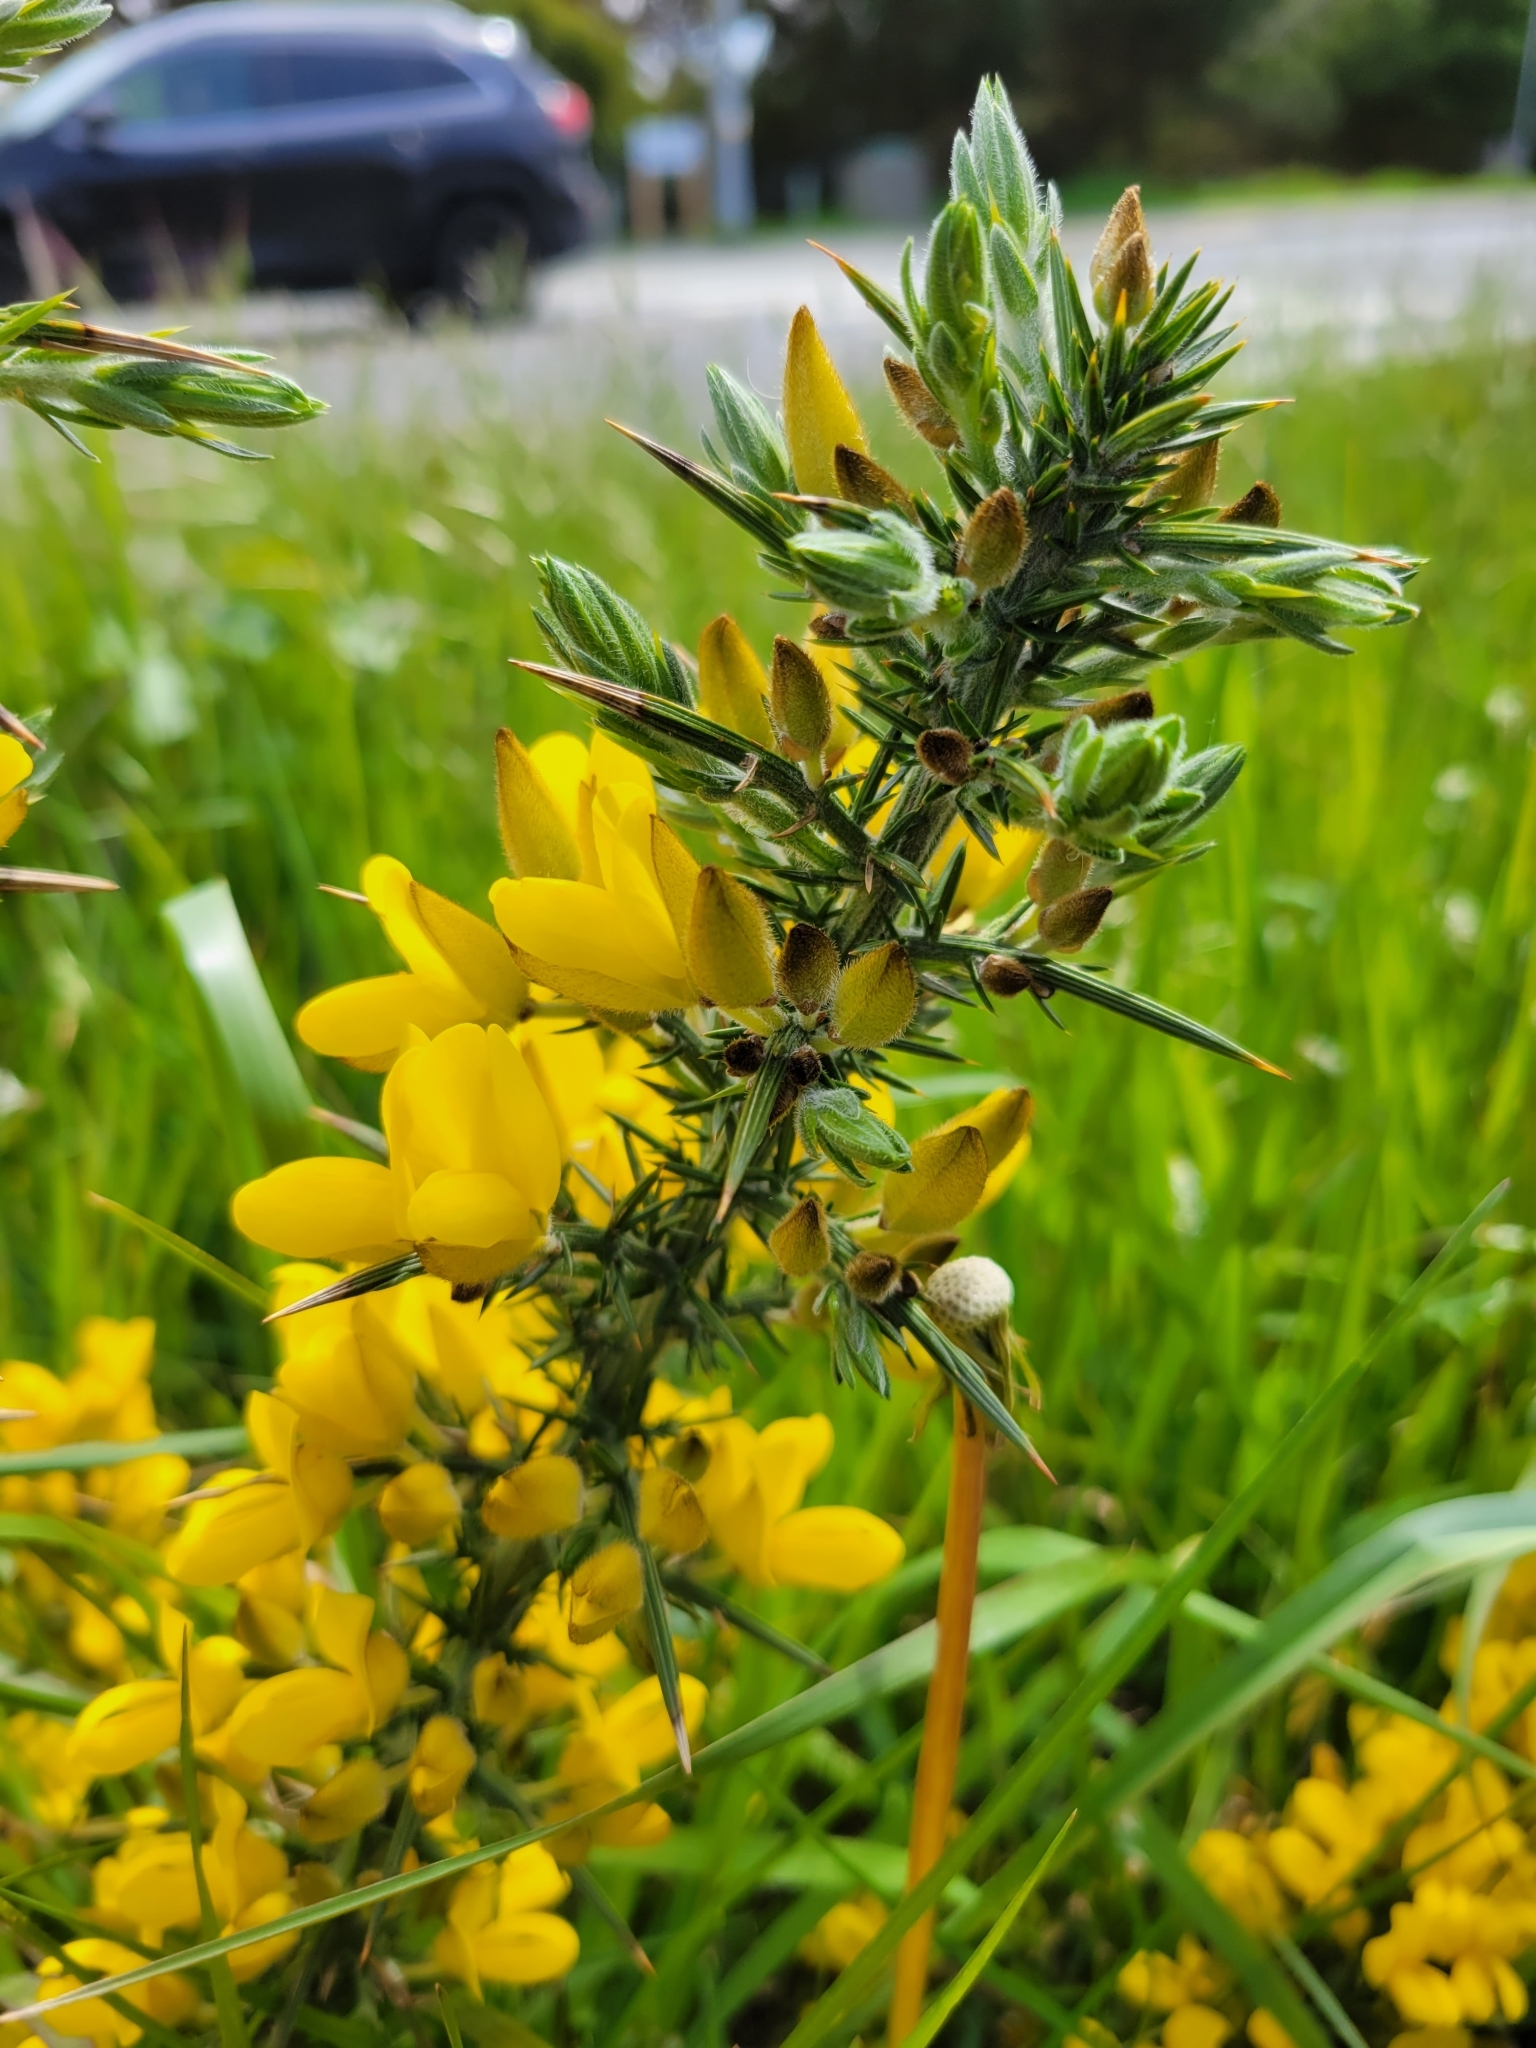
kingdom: Plantae
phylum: Tracheophyta
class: Magnoliopsida
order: Fabales
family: Fabaceae
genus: Ulex
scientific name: Ulex europaeus
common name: Common gorse
